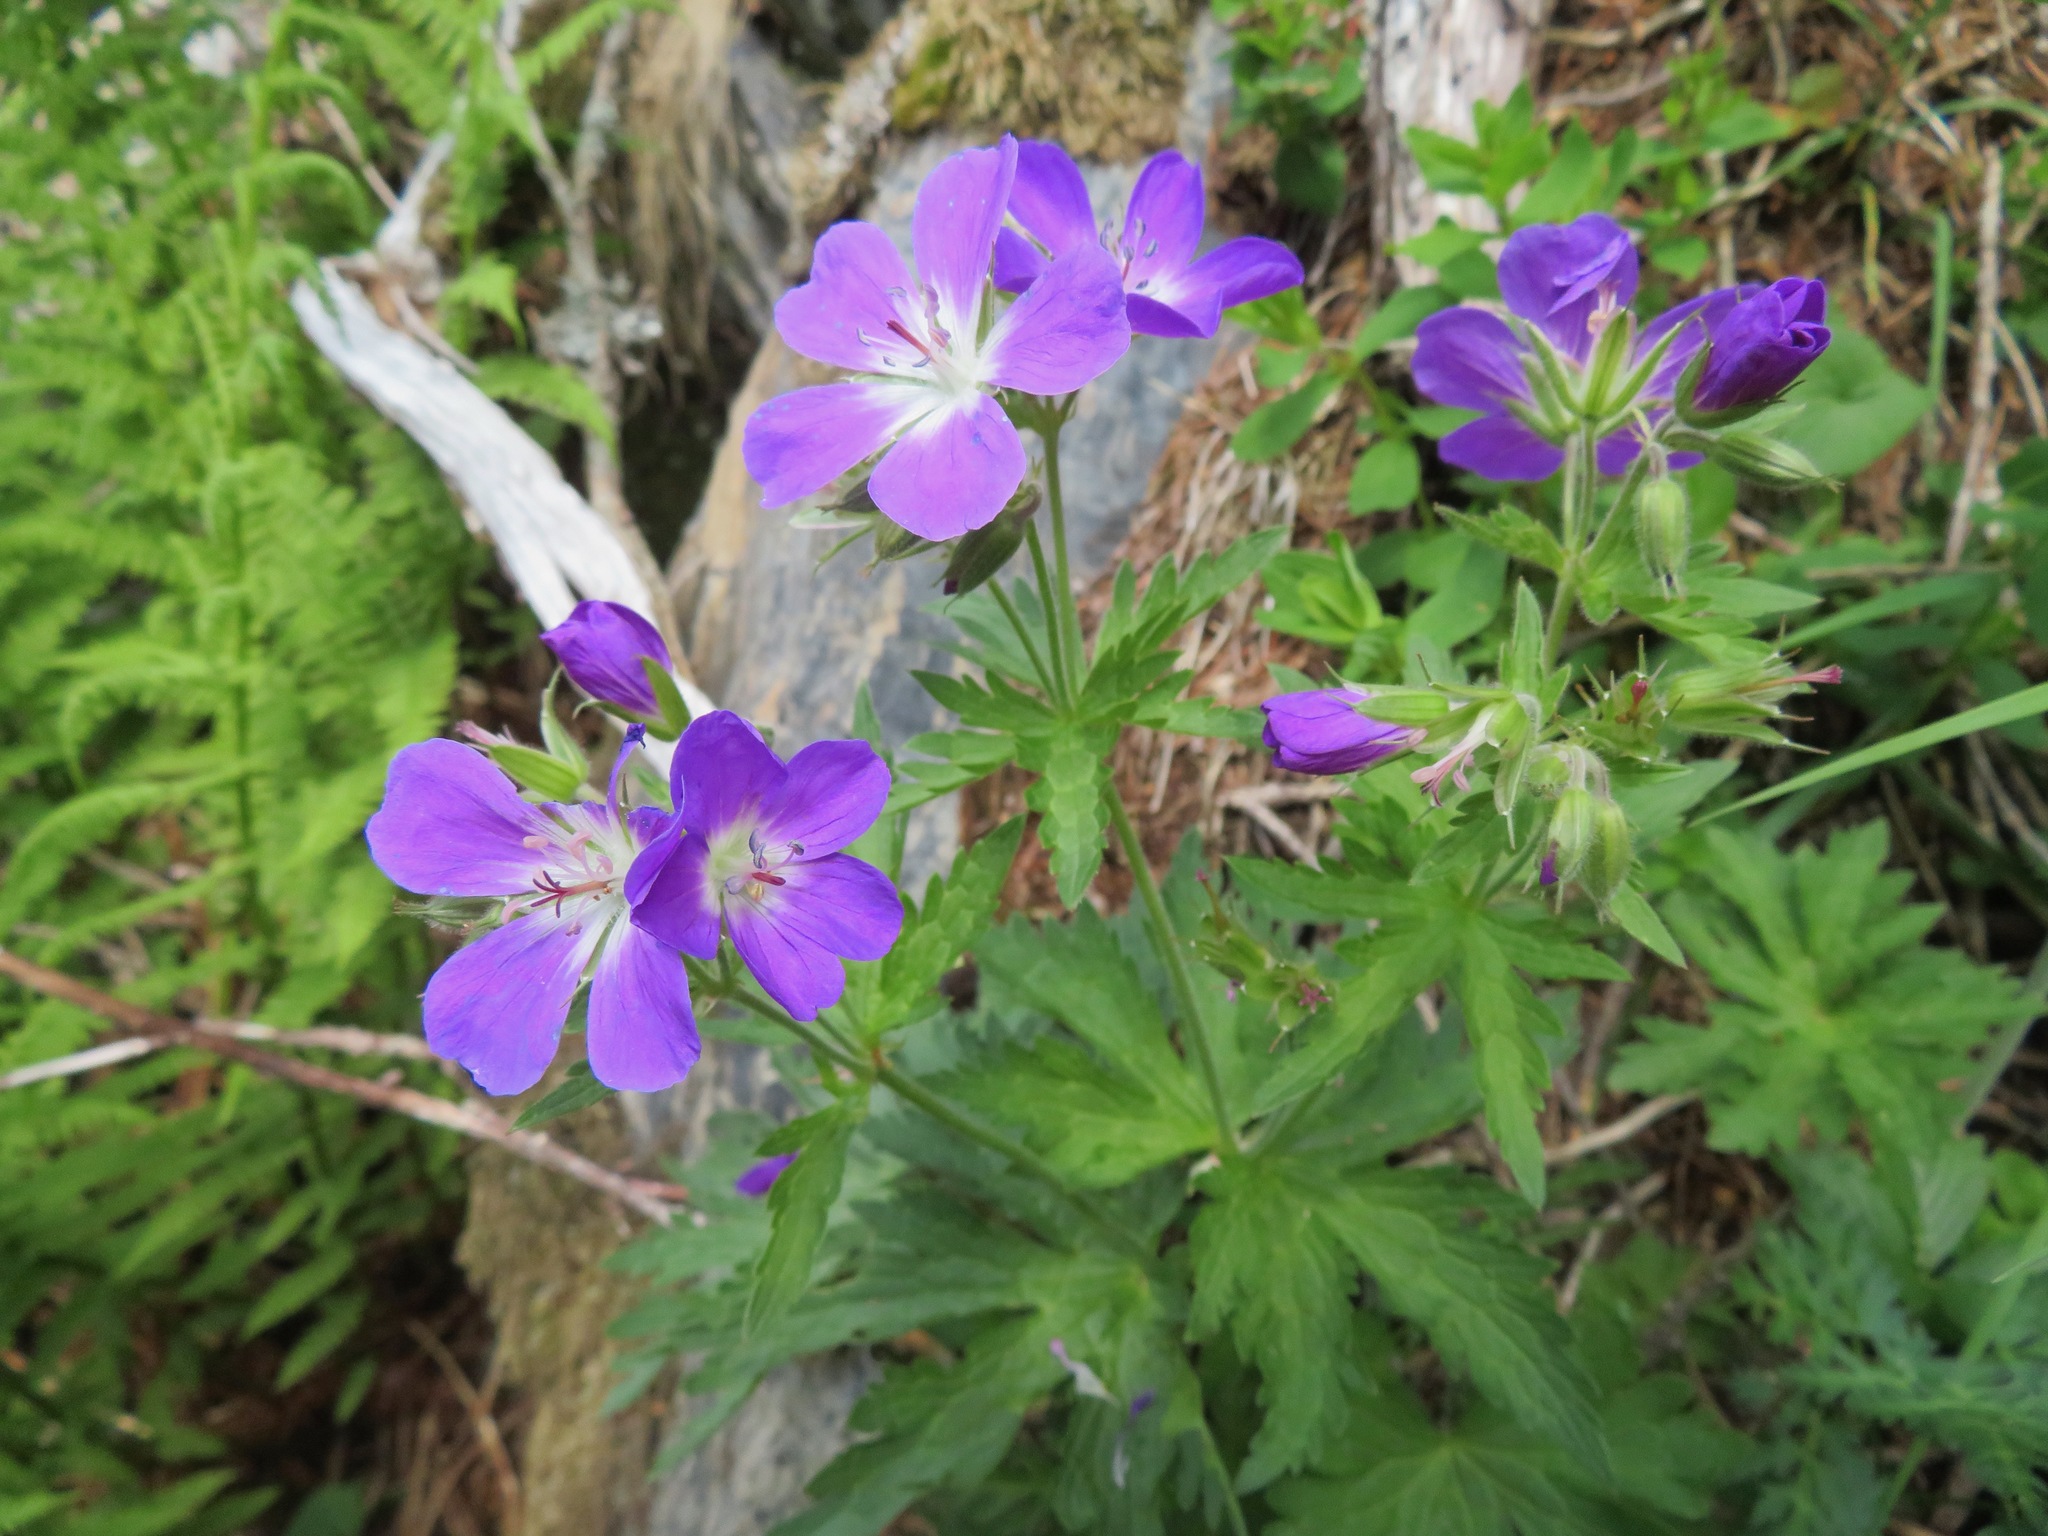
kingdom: Plantae
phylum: Tracheophyta
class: Magnoliopsida
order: Geraniales
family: Geraniaceae
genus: Geranium
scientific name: Geranium sylvaticum
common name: Wood crane's-bill
